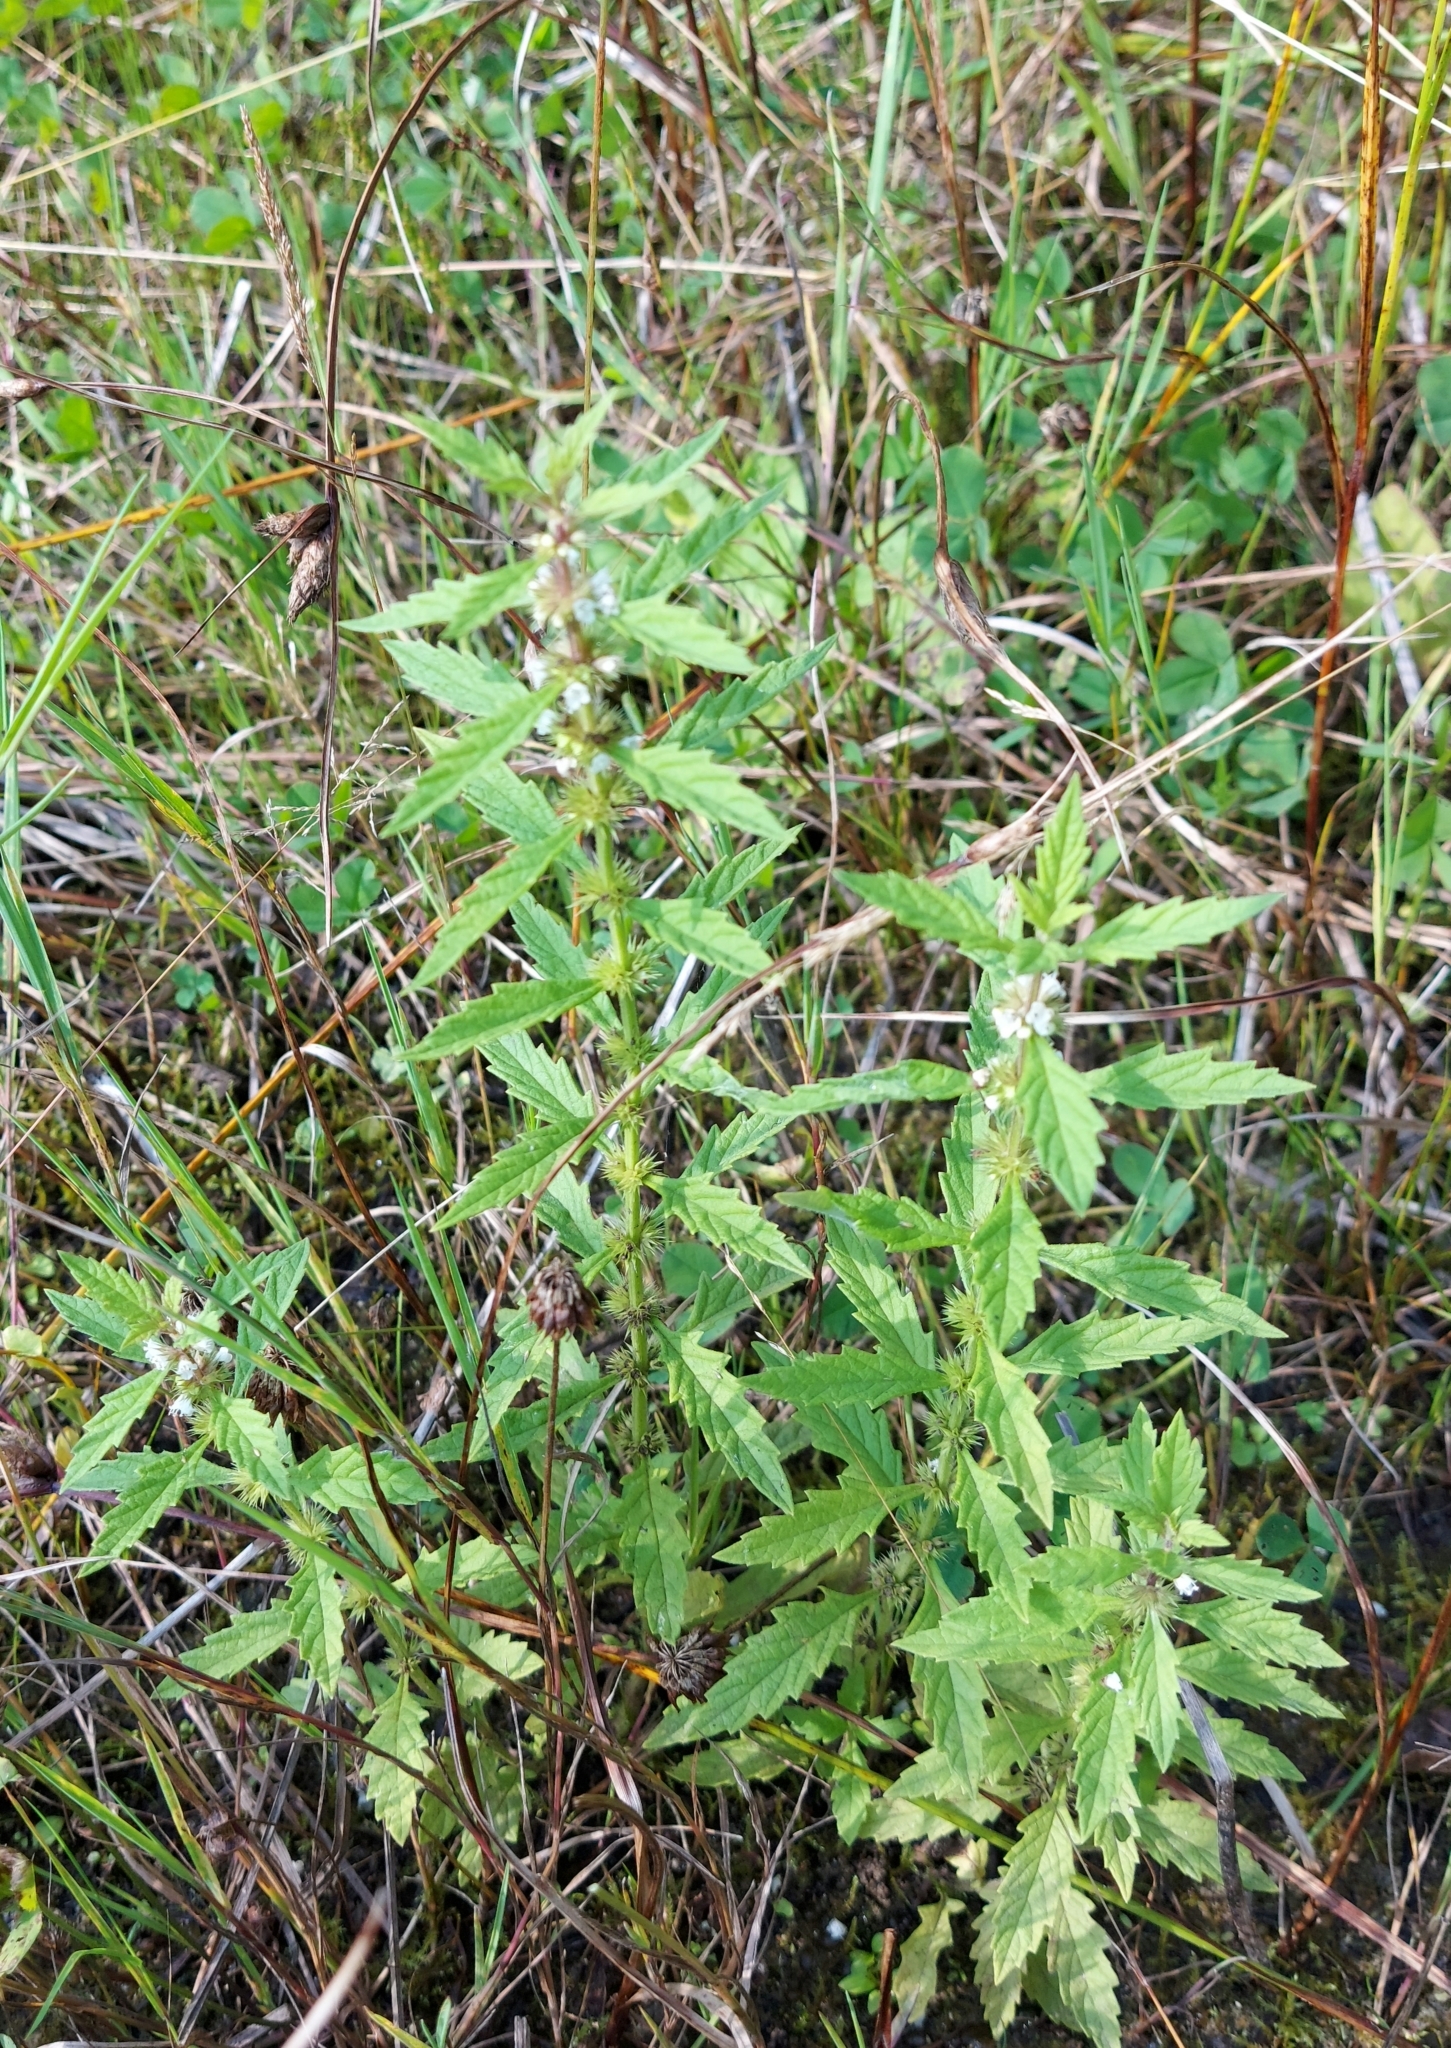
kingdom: Plantae
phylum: Tracheophyta
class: Magnoliopsida
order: Lamiales
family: Lamiaceae
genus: Lycopus
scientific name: Lycopus europaeus
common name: European bugleweed
